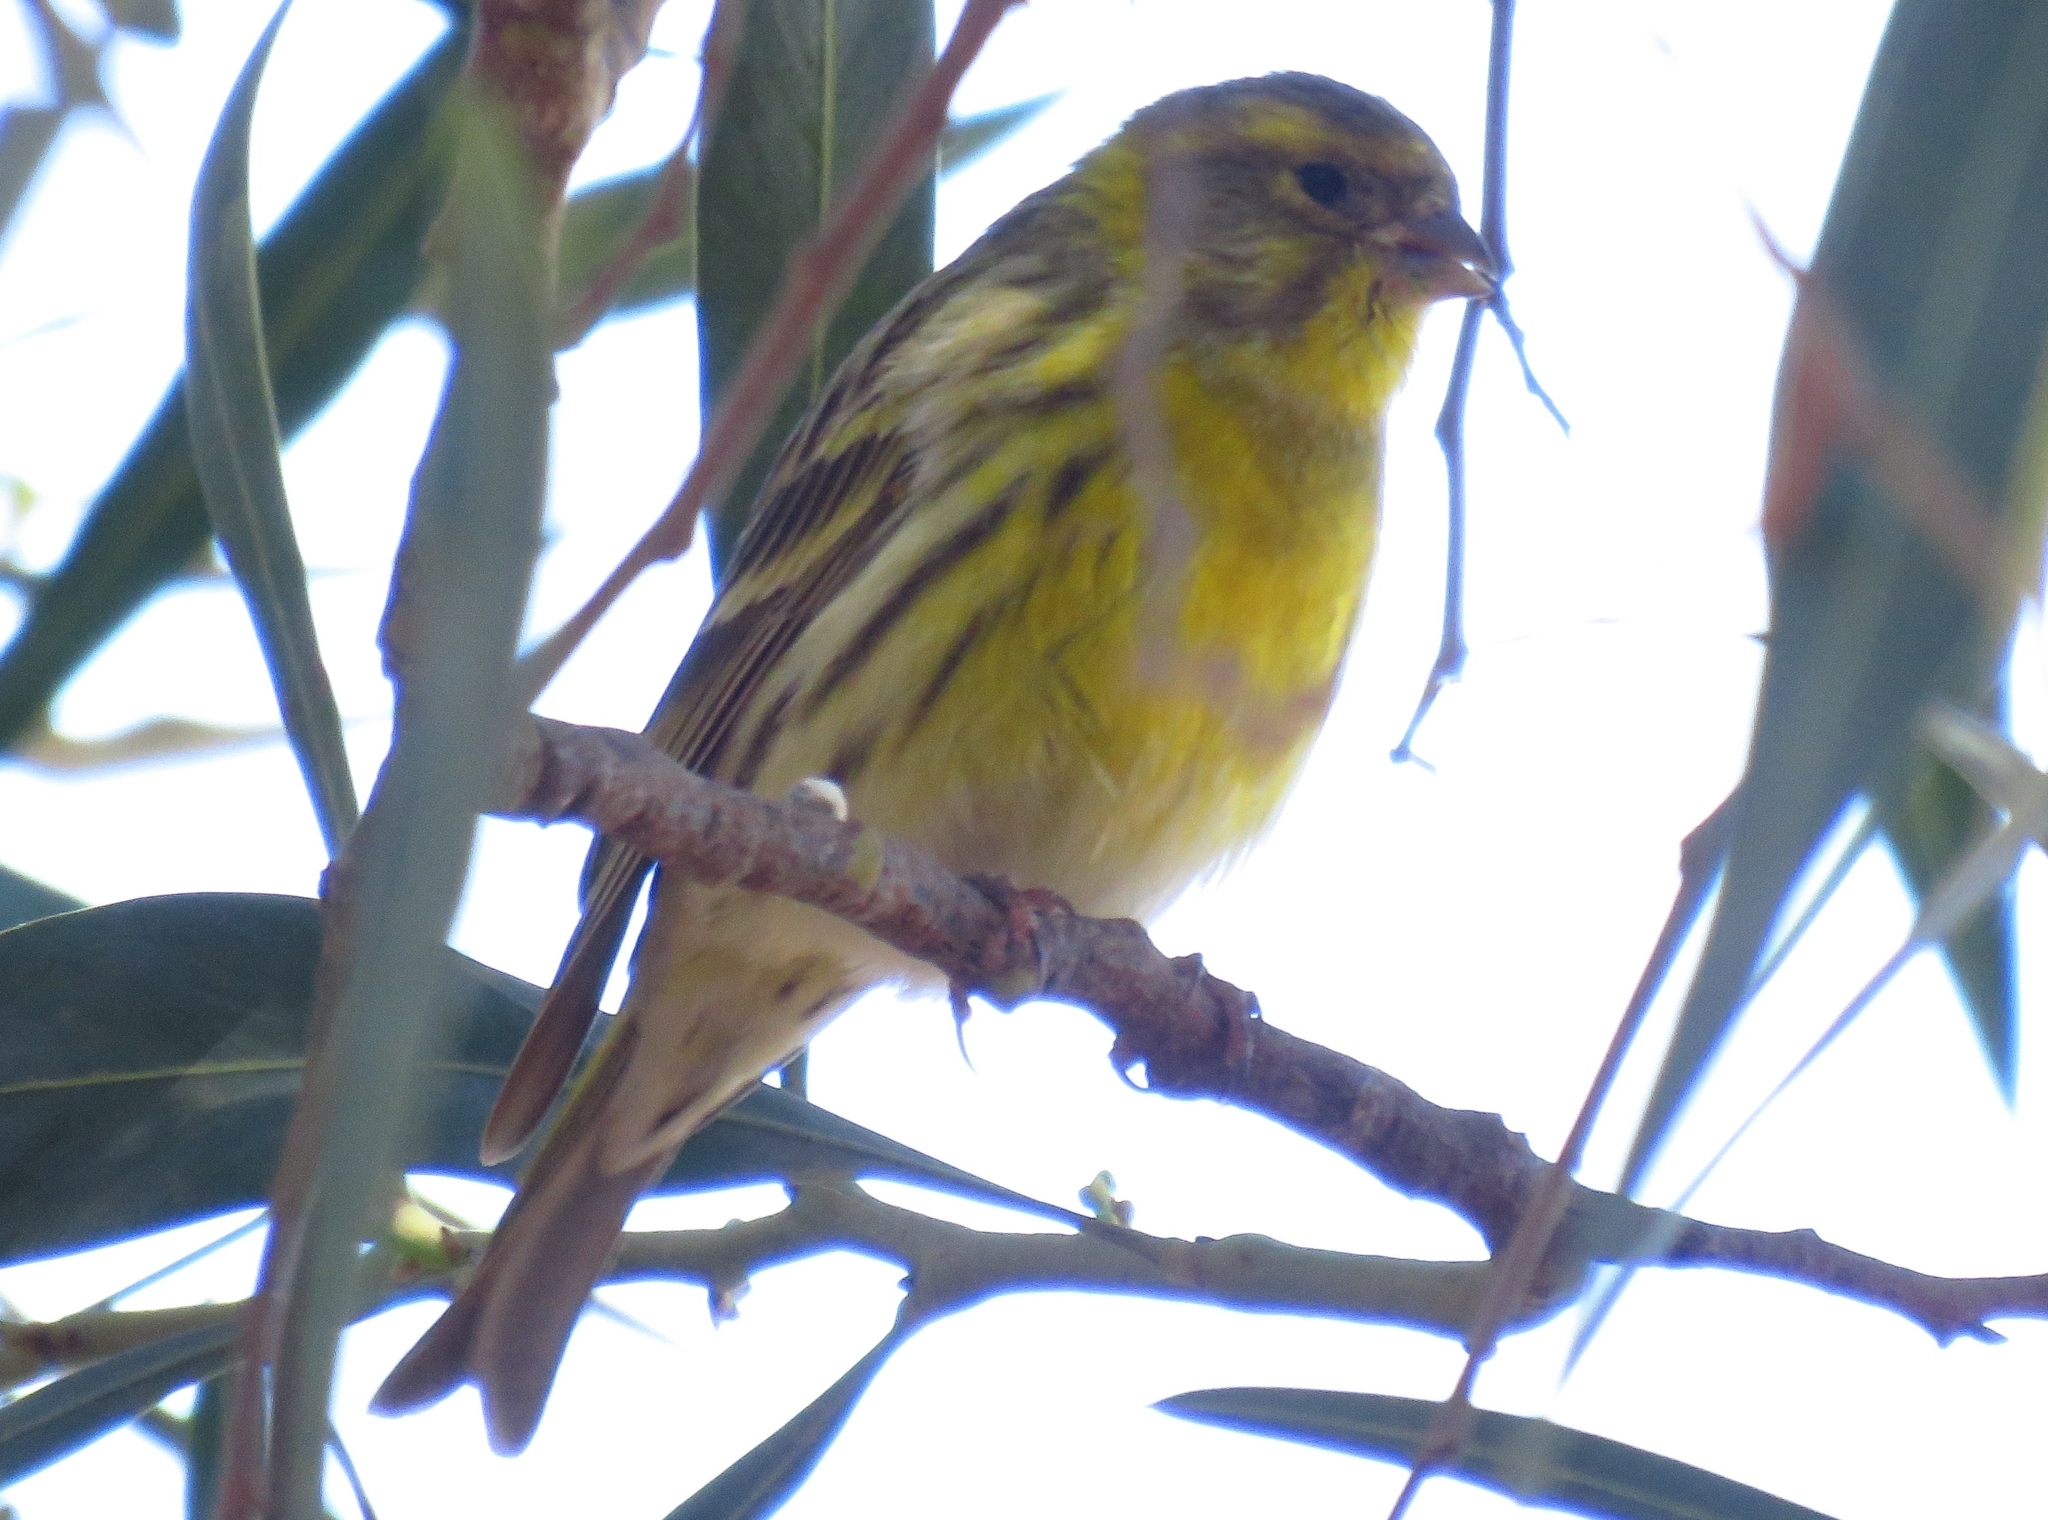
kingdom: Animalia
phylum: Chordata
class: Aves
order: Passeriformes
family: Fringillidae
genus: Serinus
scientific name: Serinus serinus
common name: European serin
